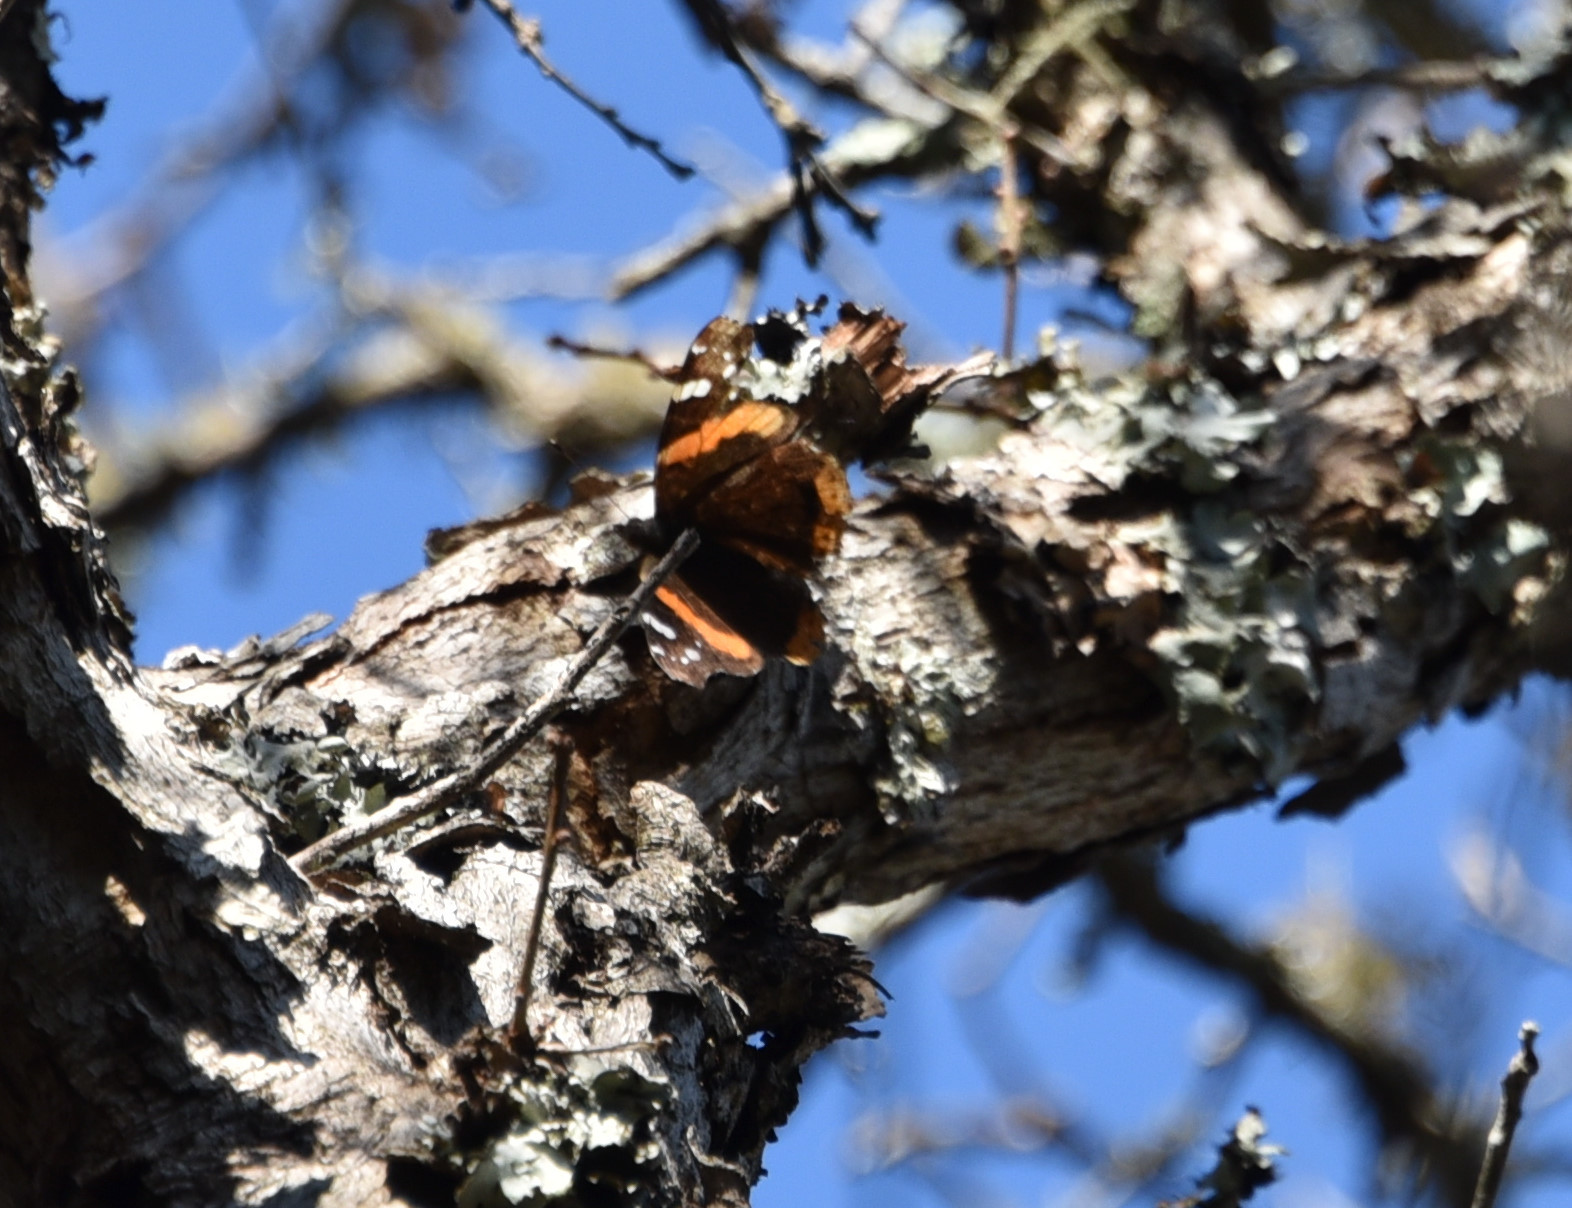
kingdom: Animalia
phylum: Arthropoda
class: Insecta
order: Lepidoptera
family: Nymphalidae
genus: Vanessa
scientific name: Vanessa atalanta
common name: Red admiral
